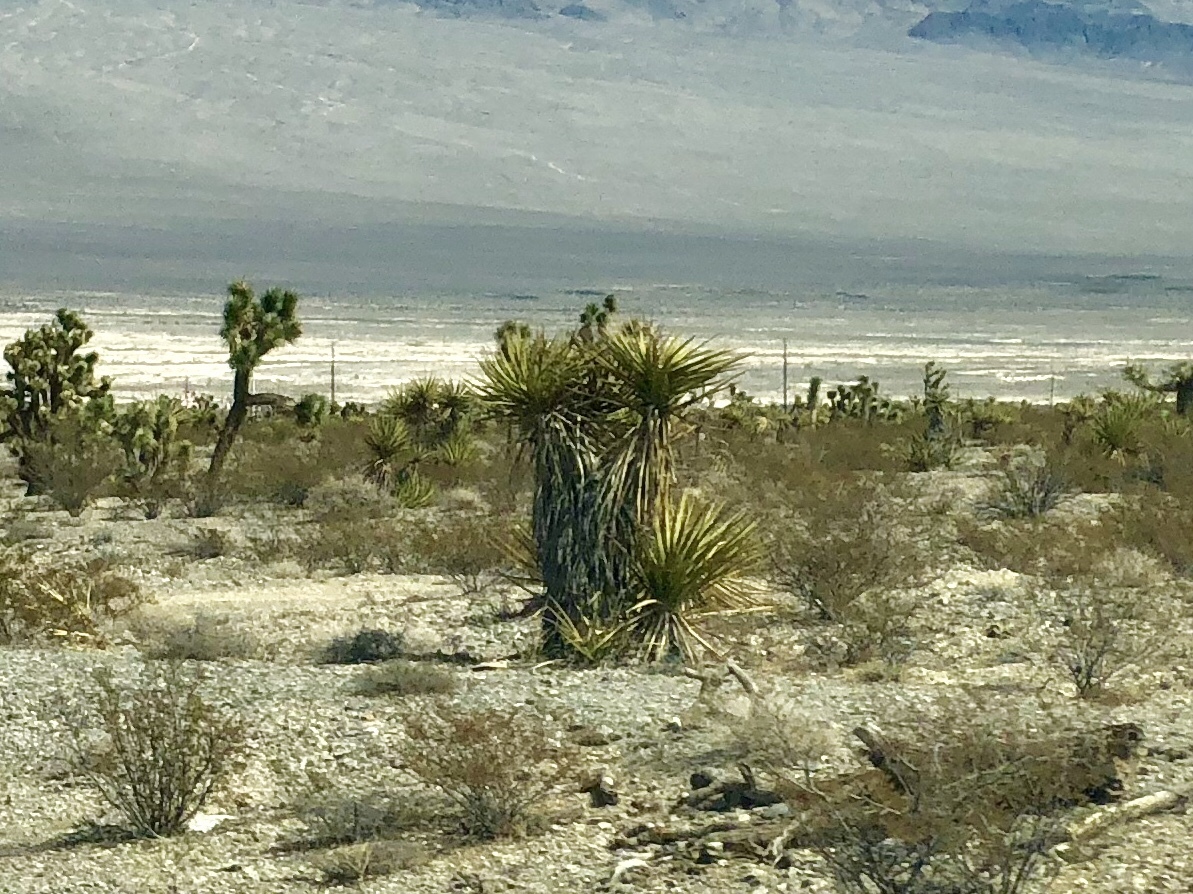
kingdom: Plantae
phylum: Tracheophyta
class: Liliopsida
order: Asparagales
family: Asparagaceae
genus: Yucca
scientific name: Yucca schidigera
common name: Mojave yucca
